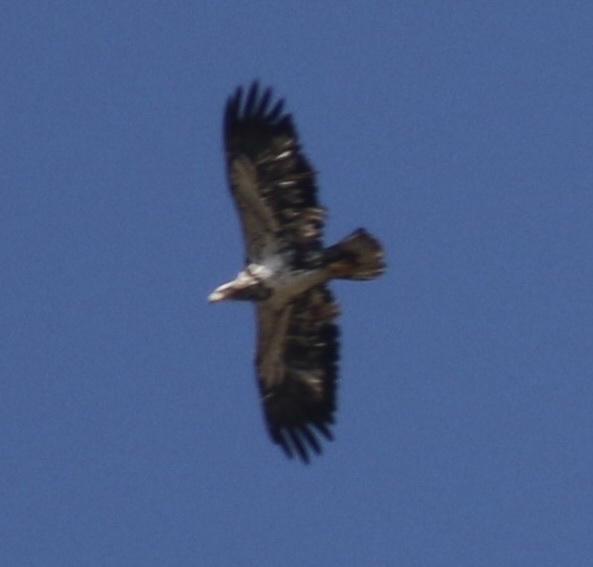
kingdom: Animalia
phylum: Chordata
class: Aves
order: Accipitriformes
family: Accipitridae
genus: Haliaeetus
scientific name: Haliaeetus leucocephalus
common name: Bald eagle
